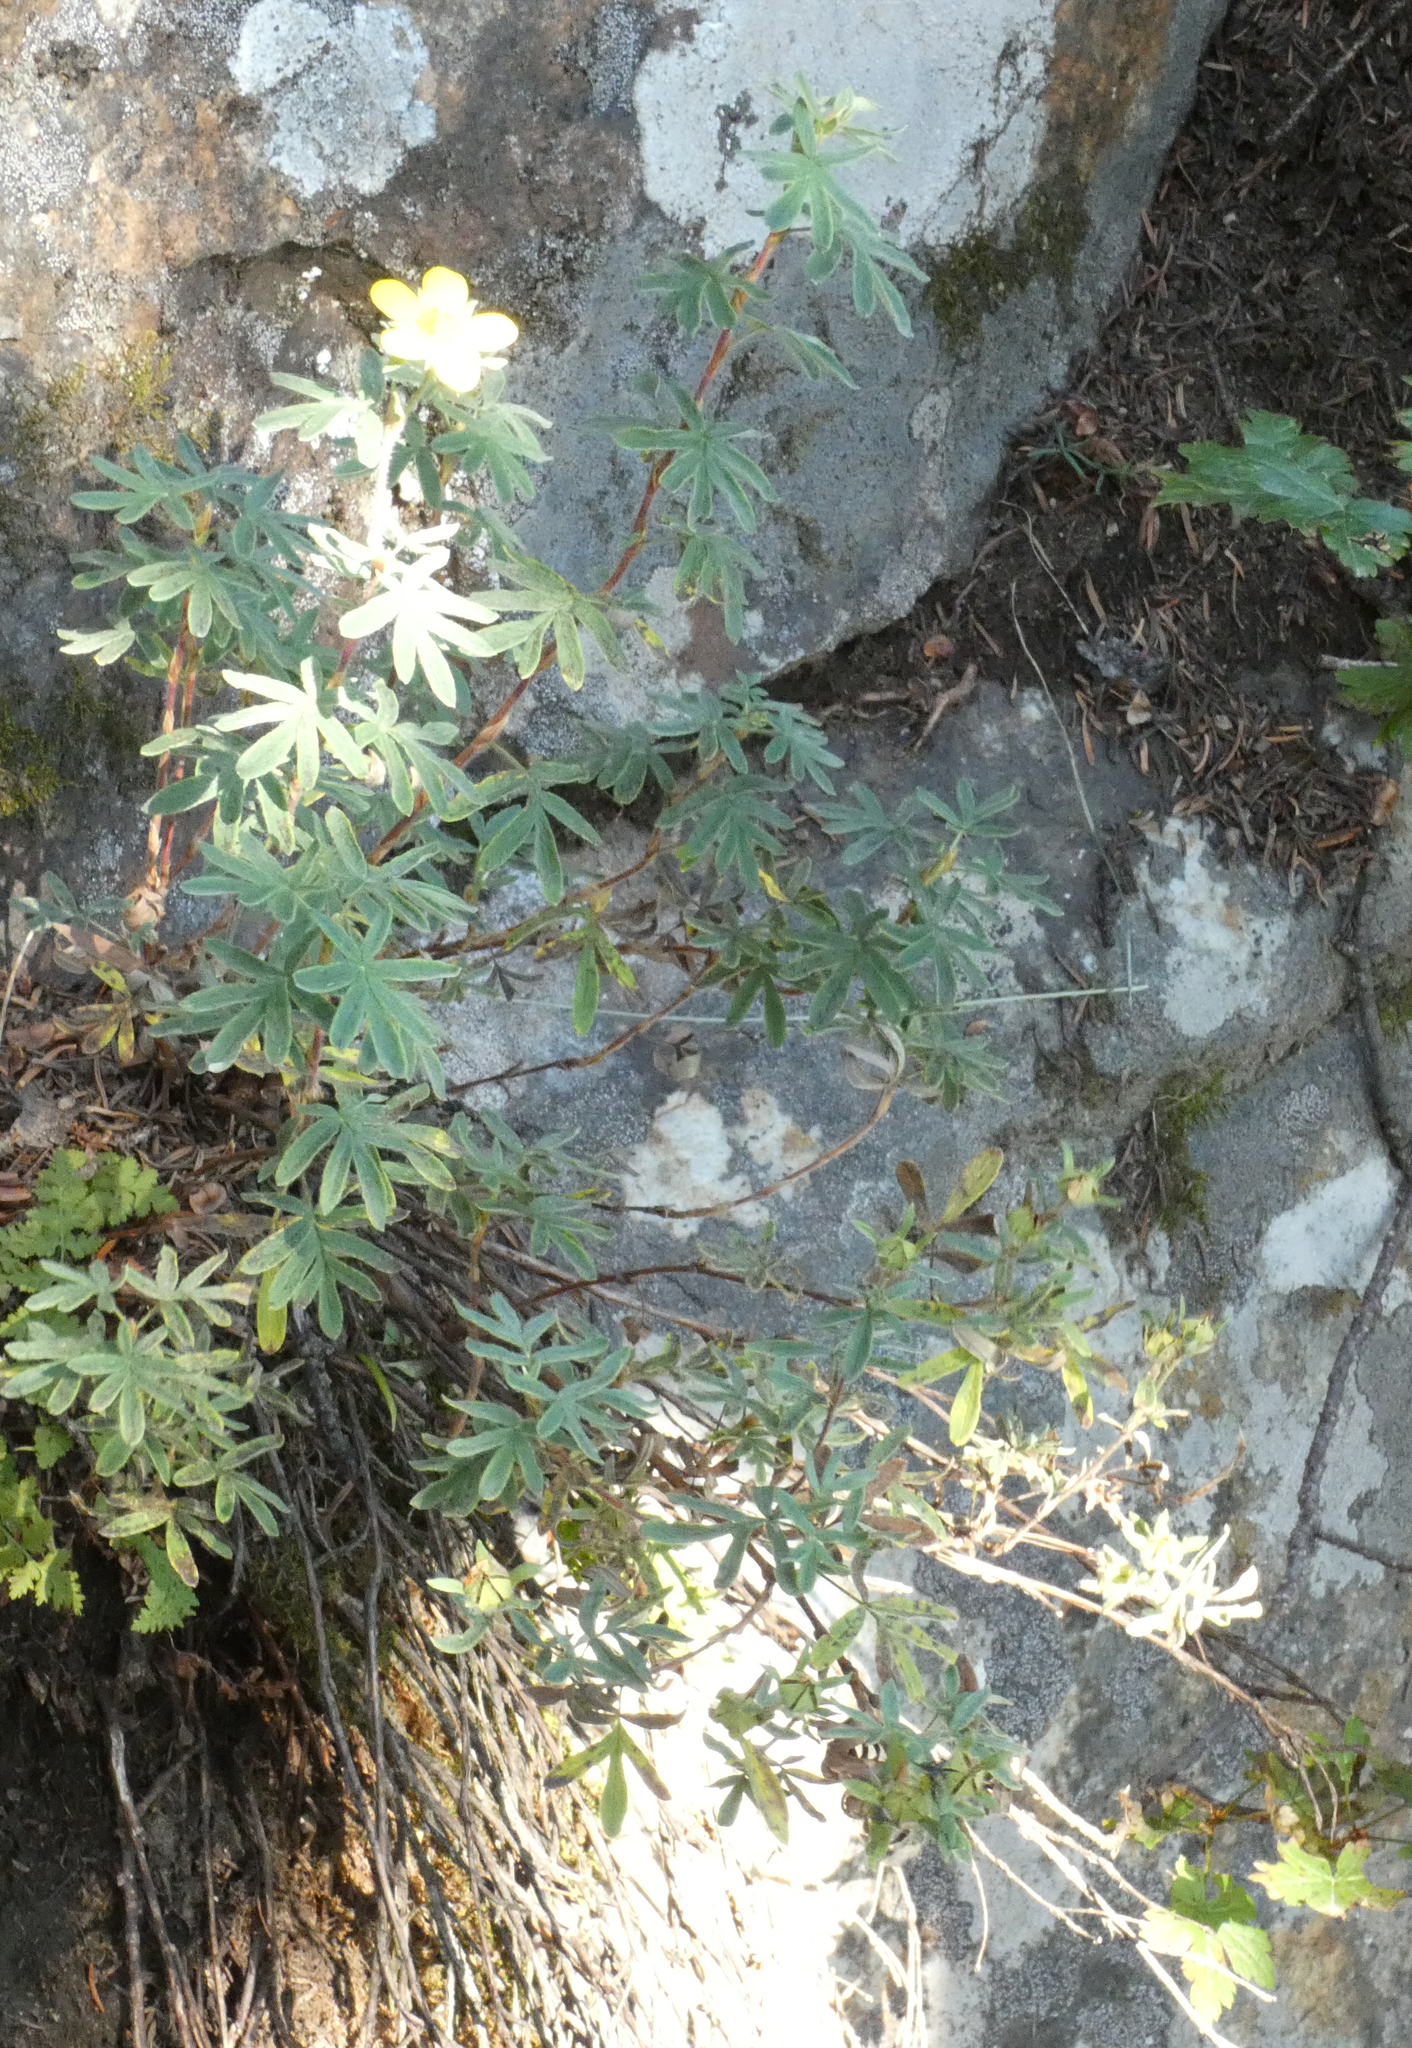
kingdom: Plantae
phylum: Tracheophyta
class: Magnoliopsida
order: Rosales
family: Rosaceae
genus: Dasiphora
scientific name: Dasiphora fruticosa
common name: Shrubby cinquefoil
